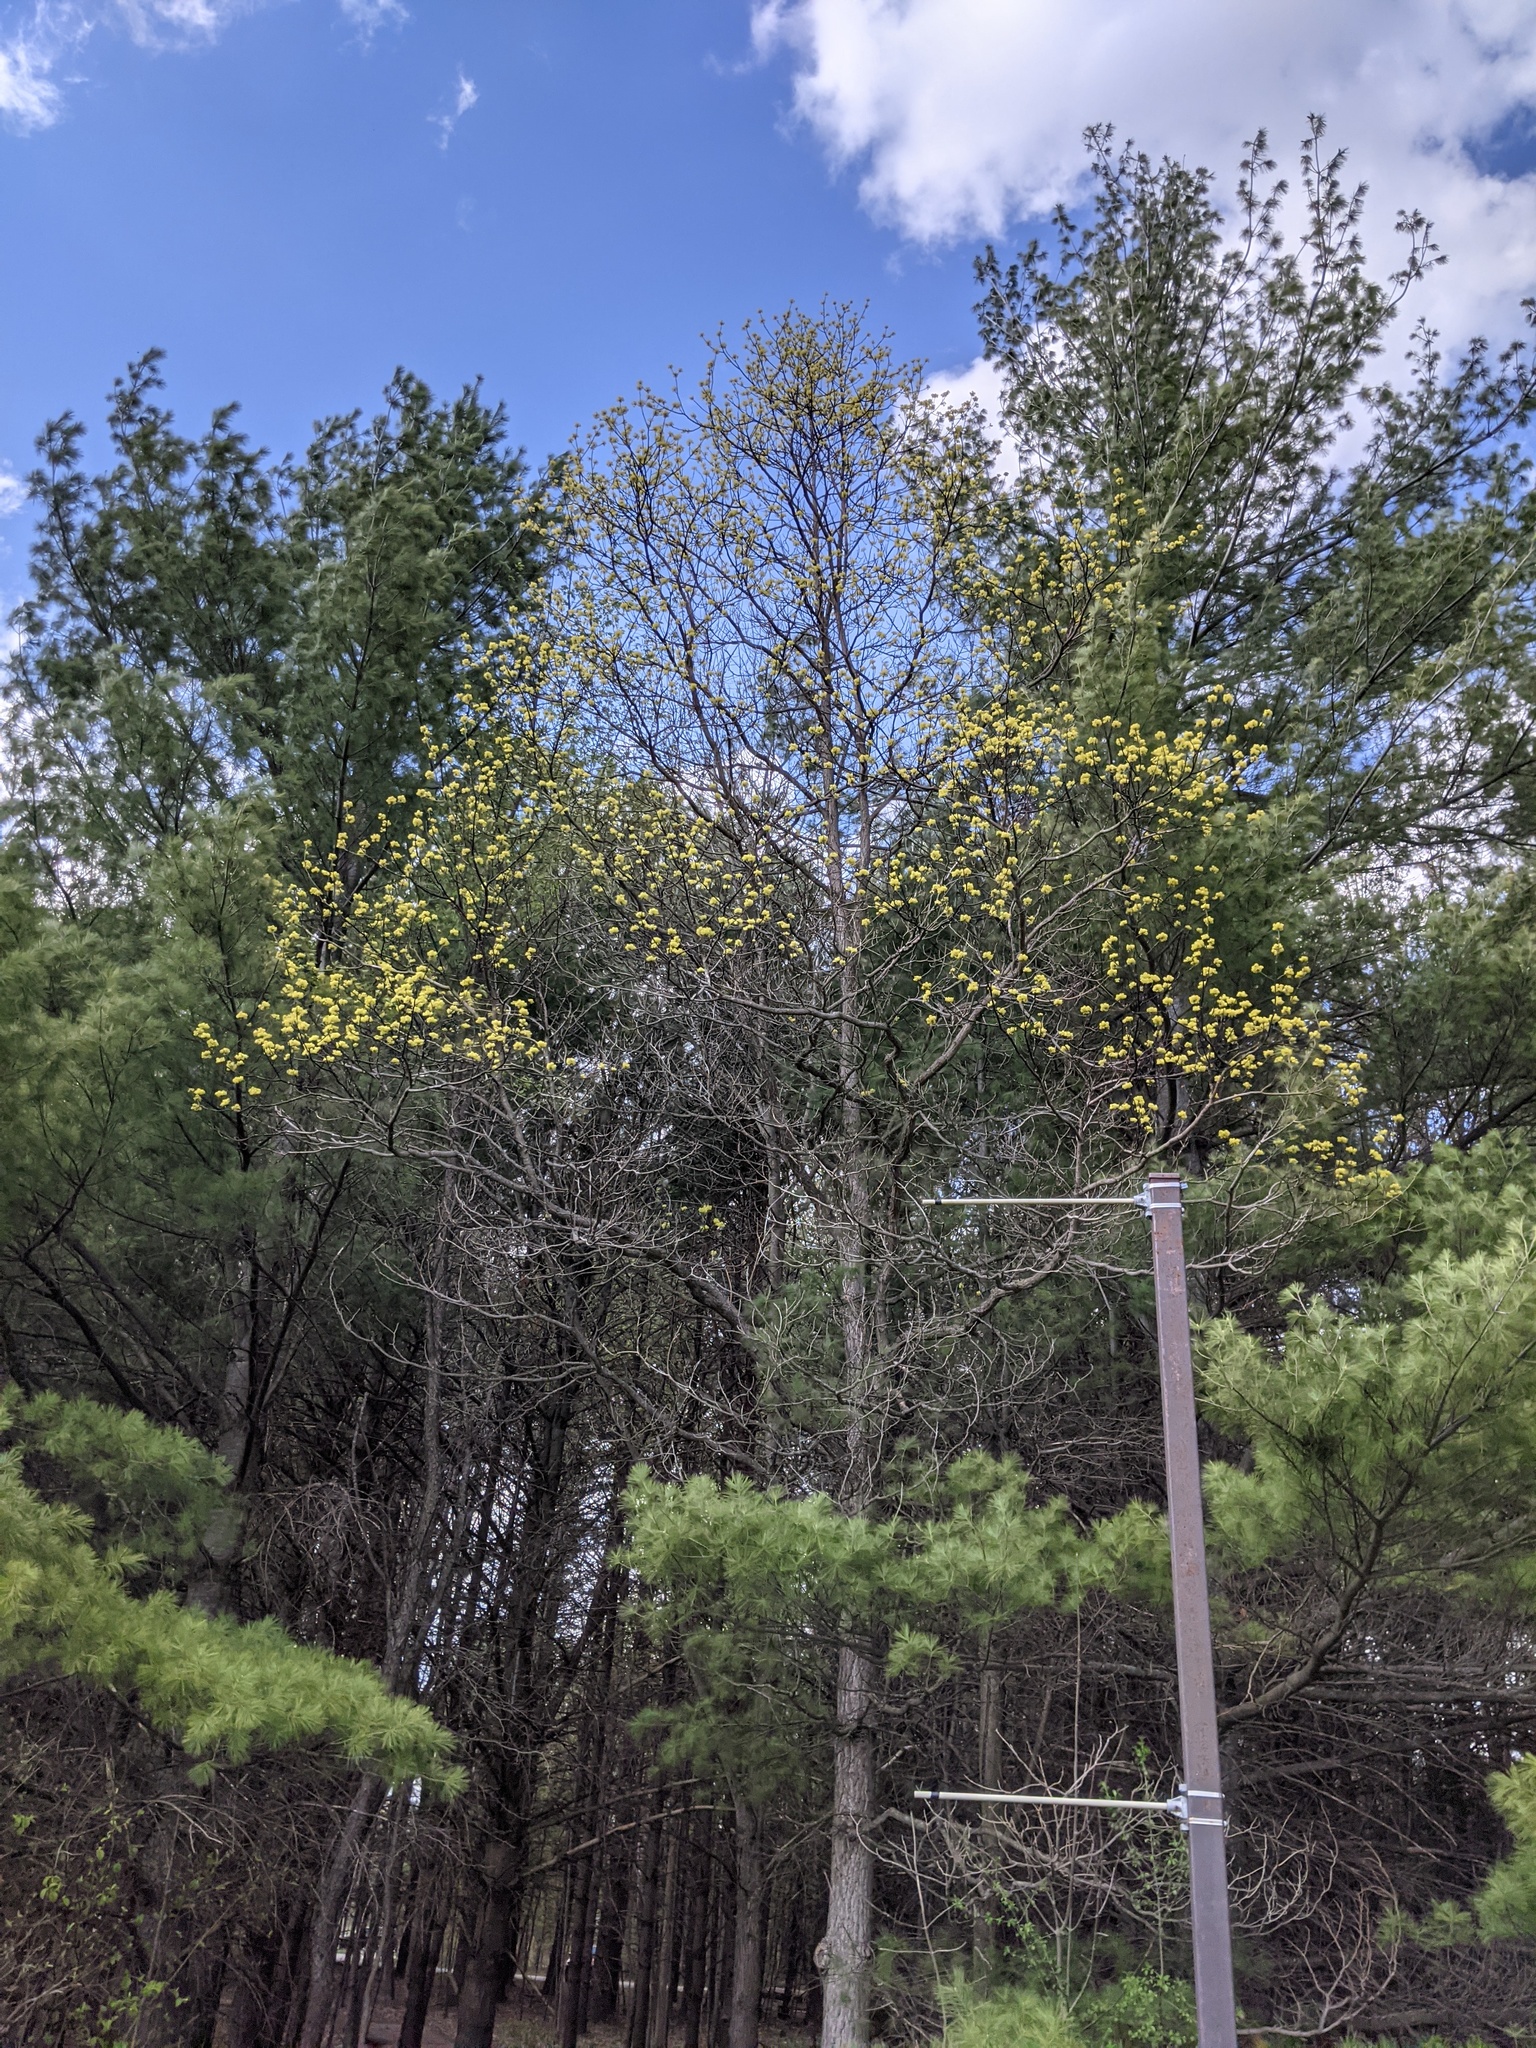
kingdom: Plantae
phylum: Tracheophyta
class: Magnoliopsida
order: Laurales
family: Lauraceae
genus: Sassafras
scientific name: Sassafras albidum
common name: Sassafras
